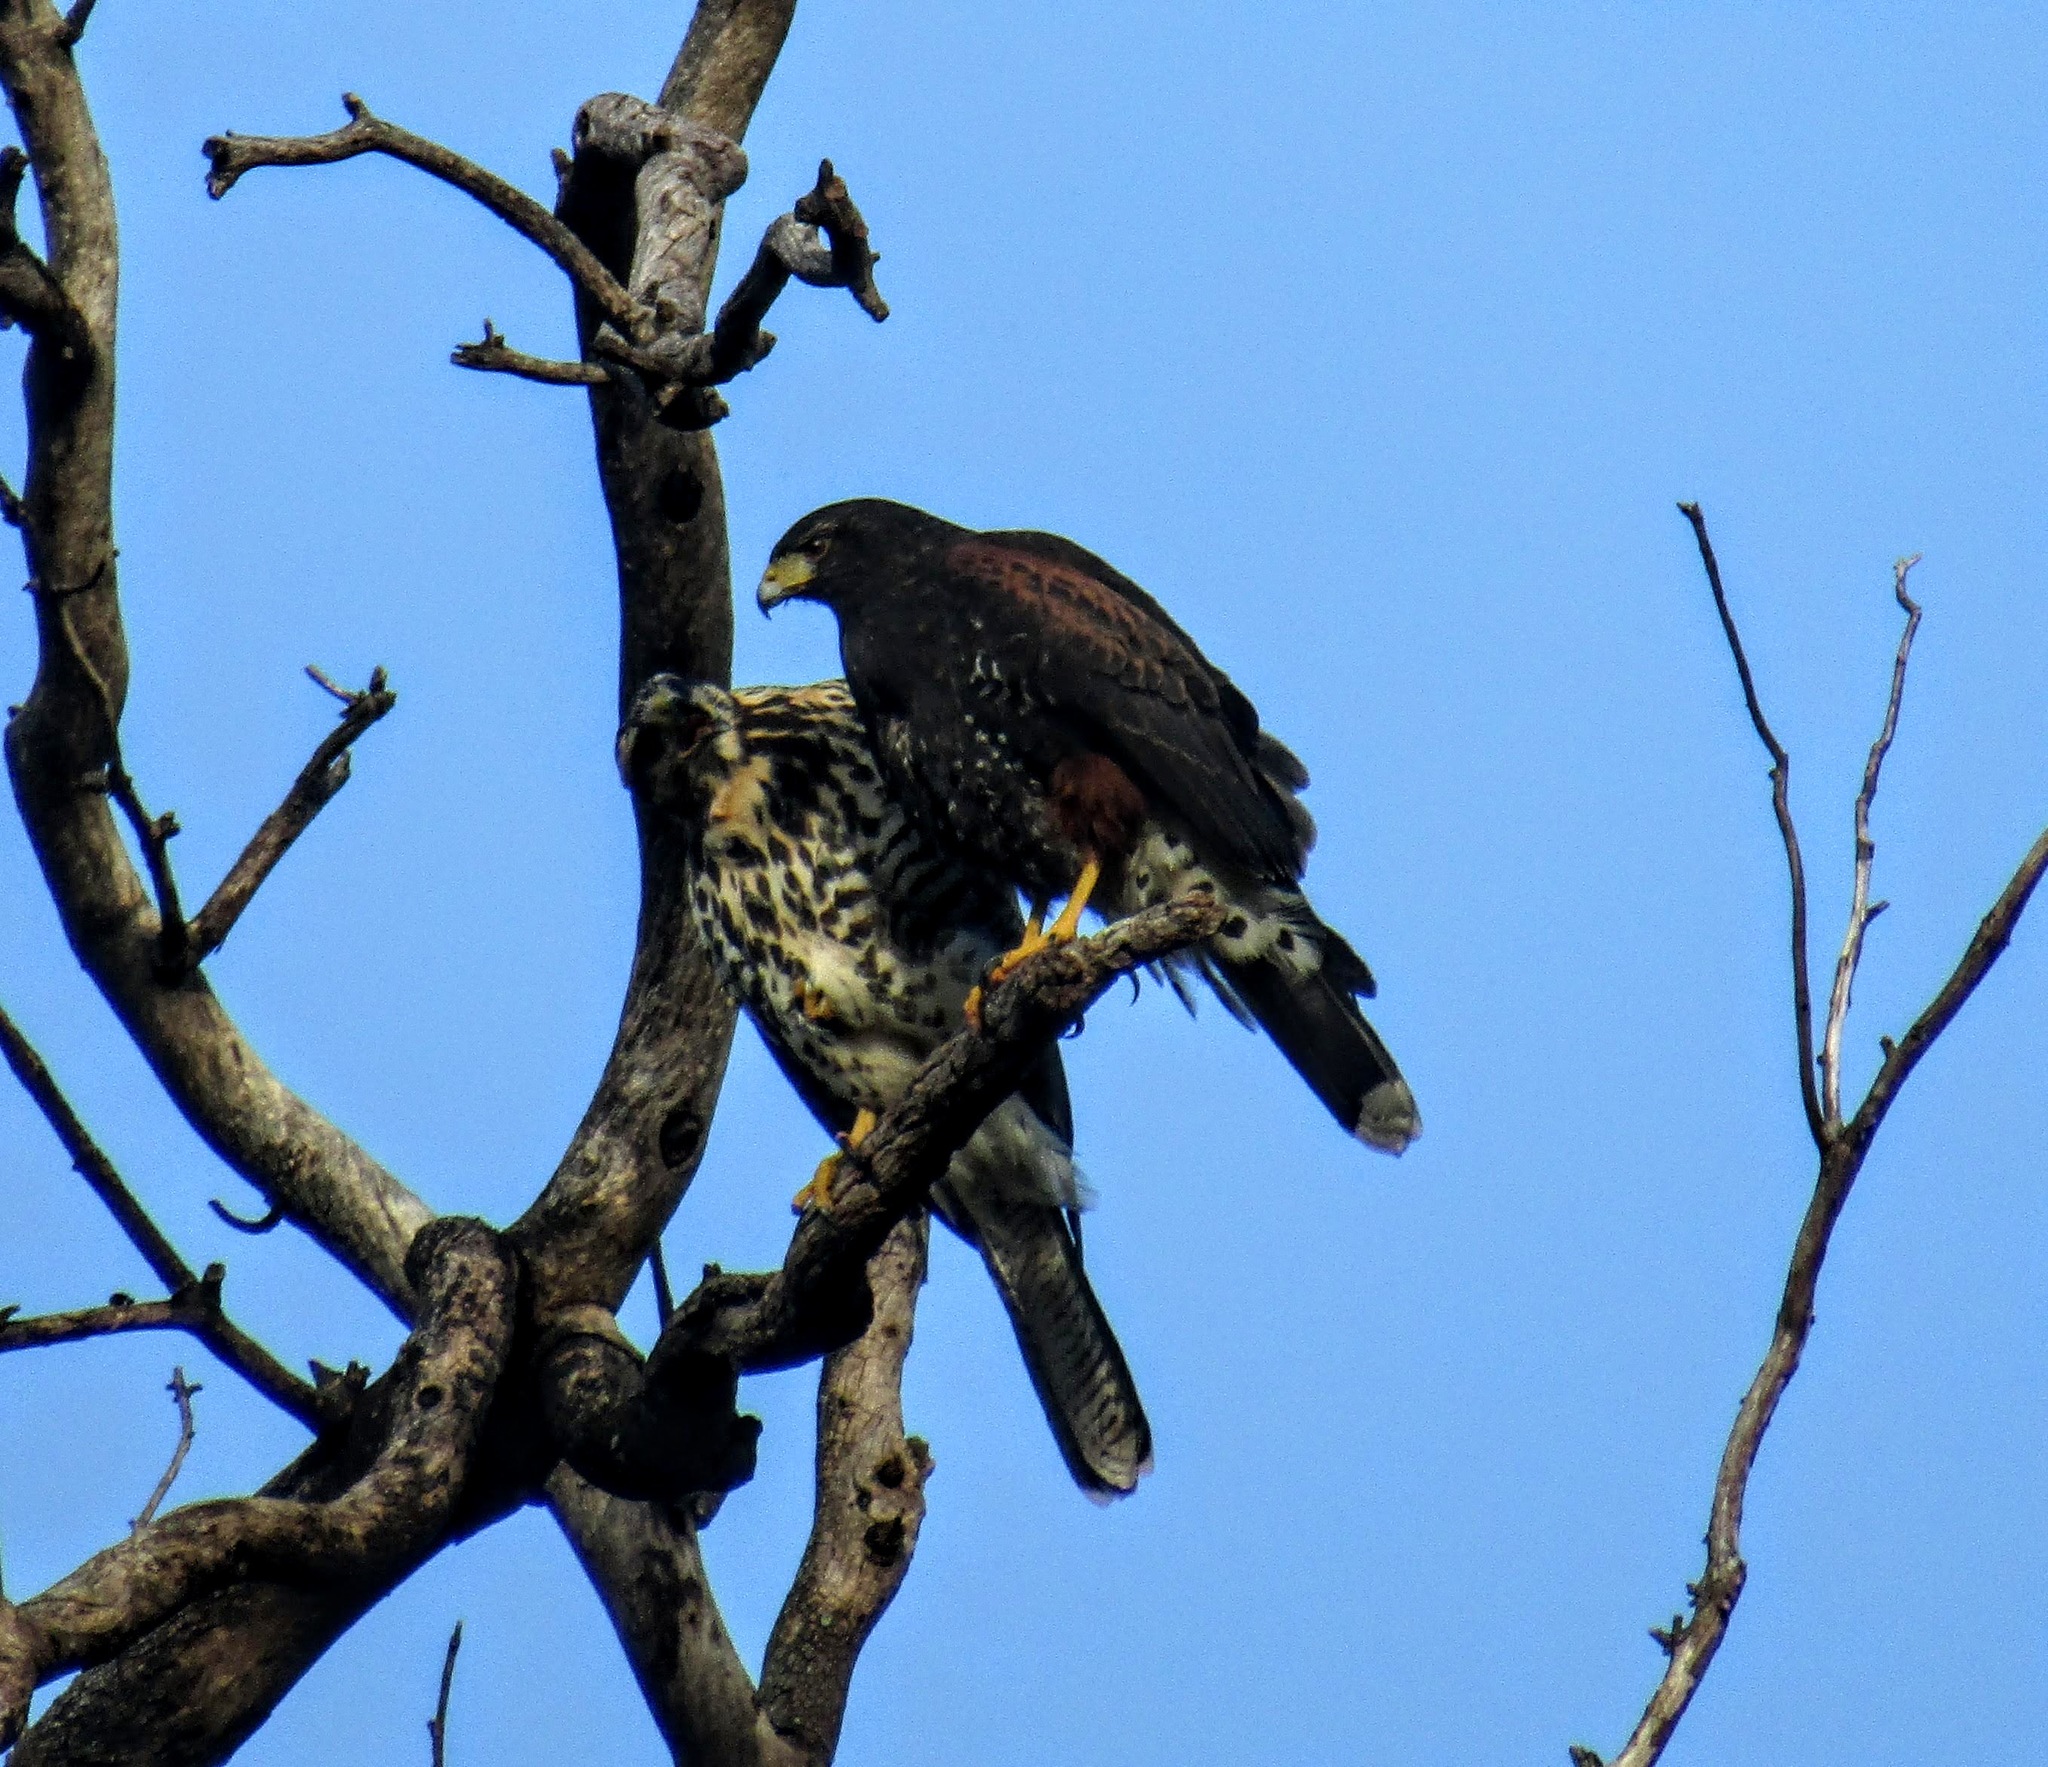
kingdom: Animalia
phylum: Chordata
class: Aves
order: Accipitriformes
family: Accipitridae
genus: Parabuteo
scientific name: Parabuteo unicinctus
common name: Harris's hawk
